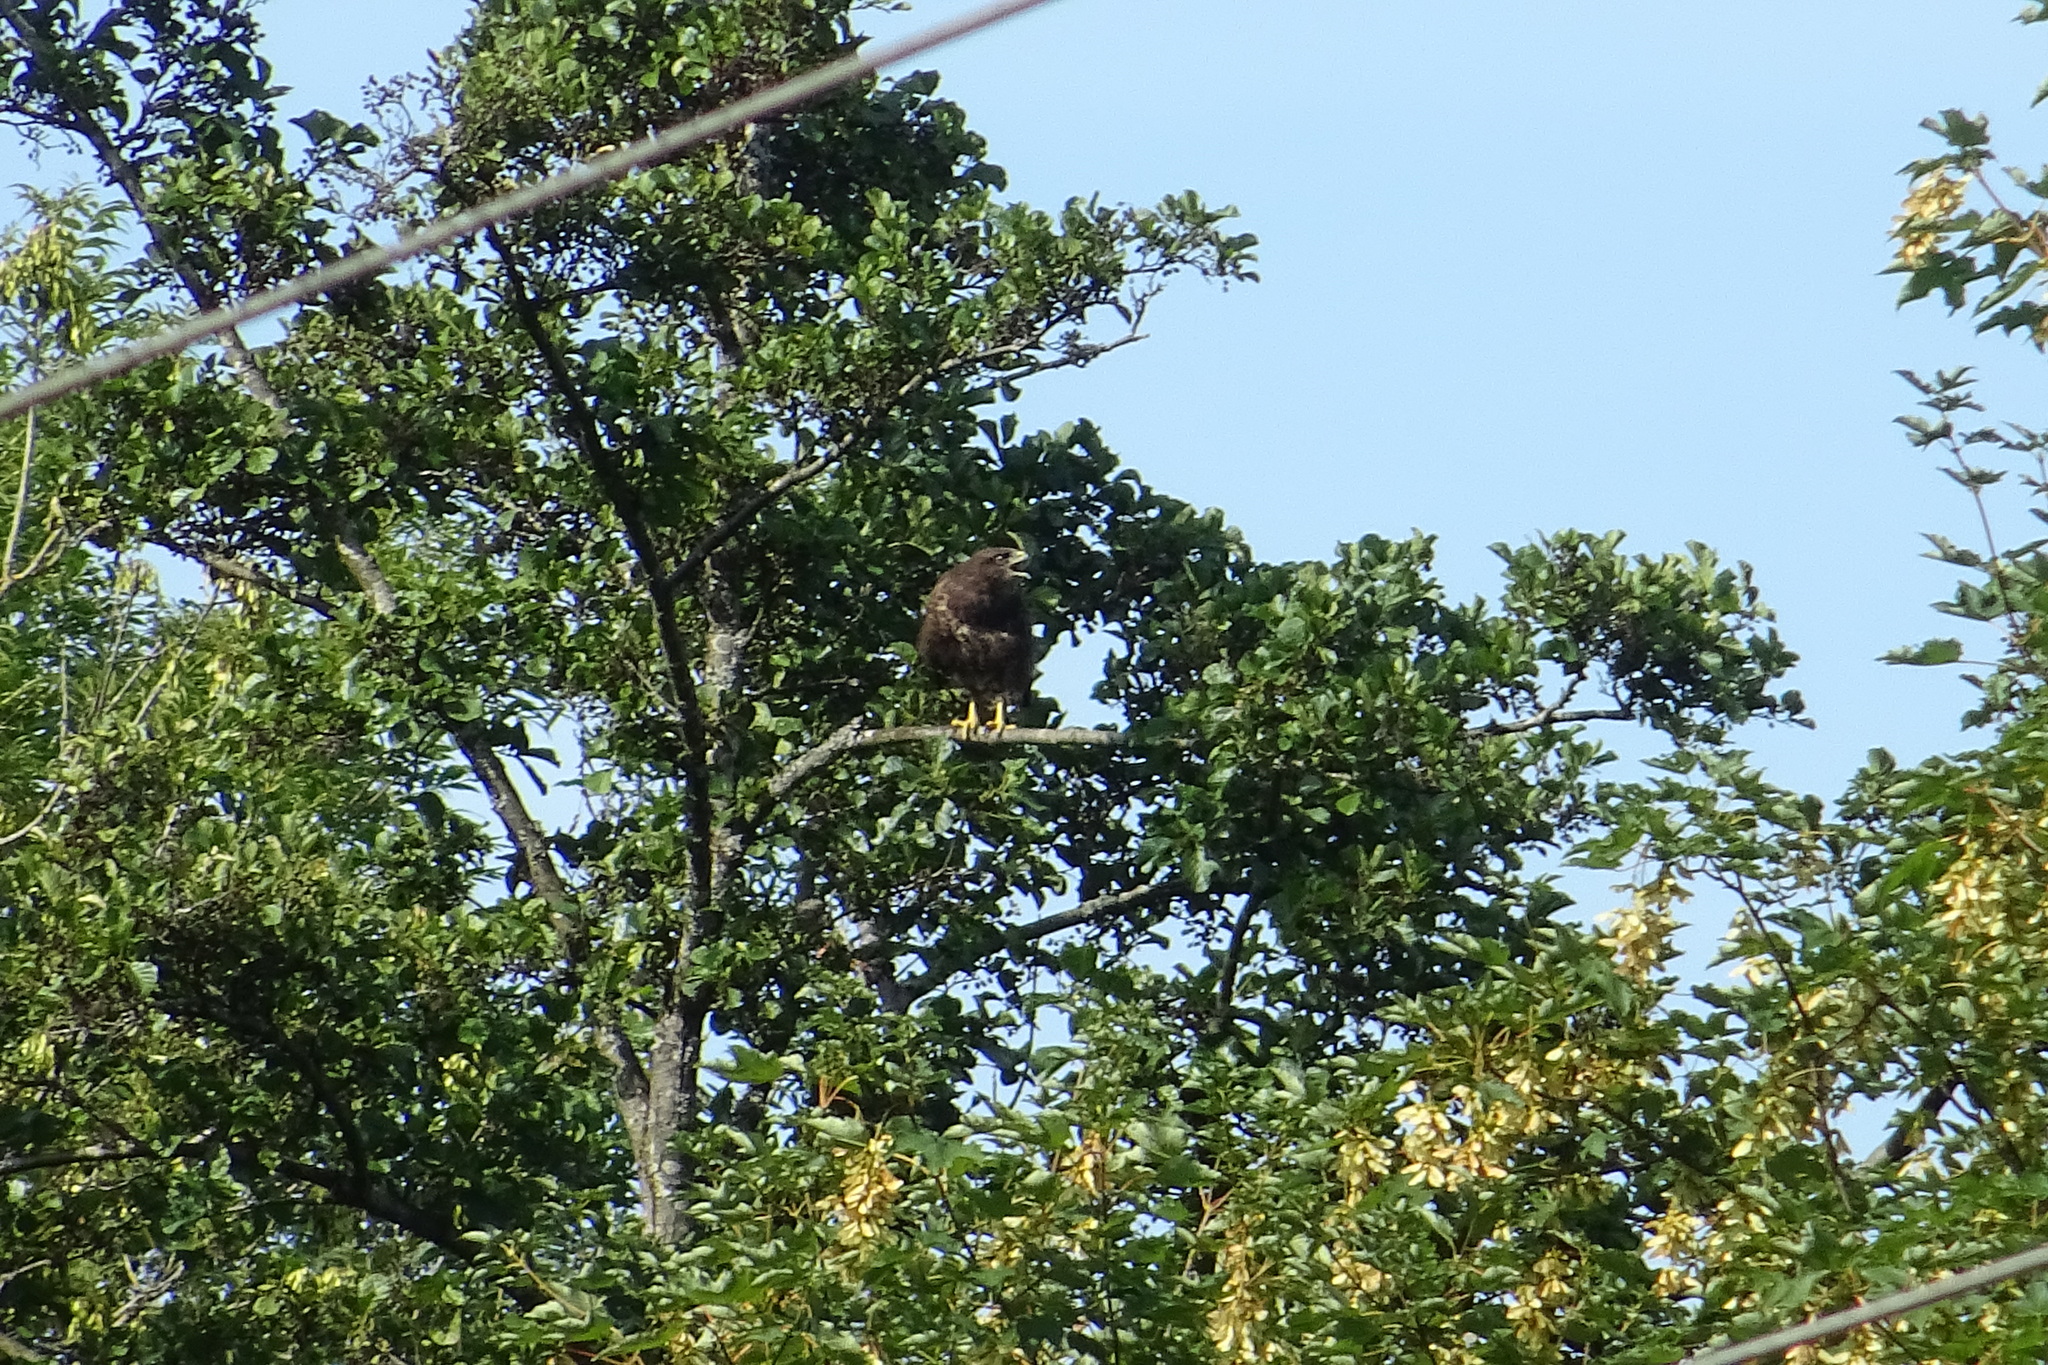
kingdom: Animalia
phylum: Chordata
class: Aves
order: Accipitriformes
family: Accipitridae
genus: Buteo
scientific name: Buteo buteo
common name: Common buzzard
